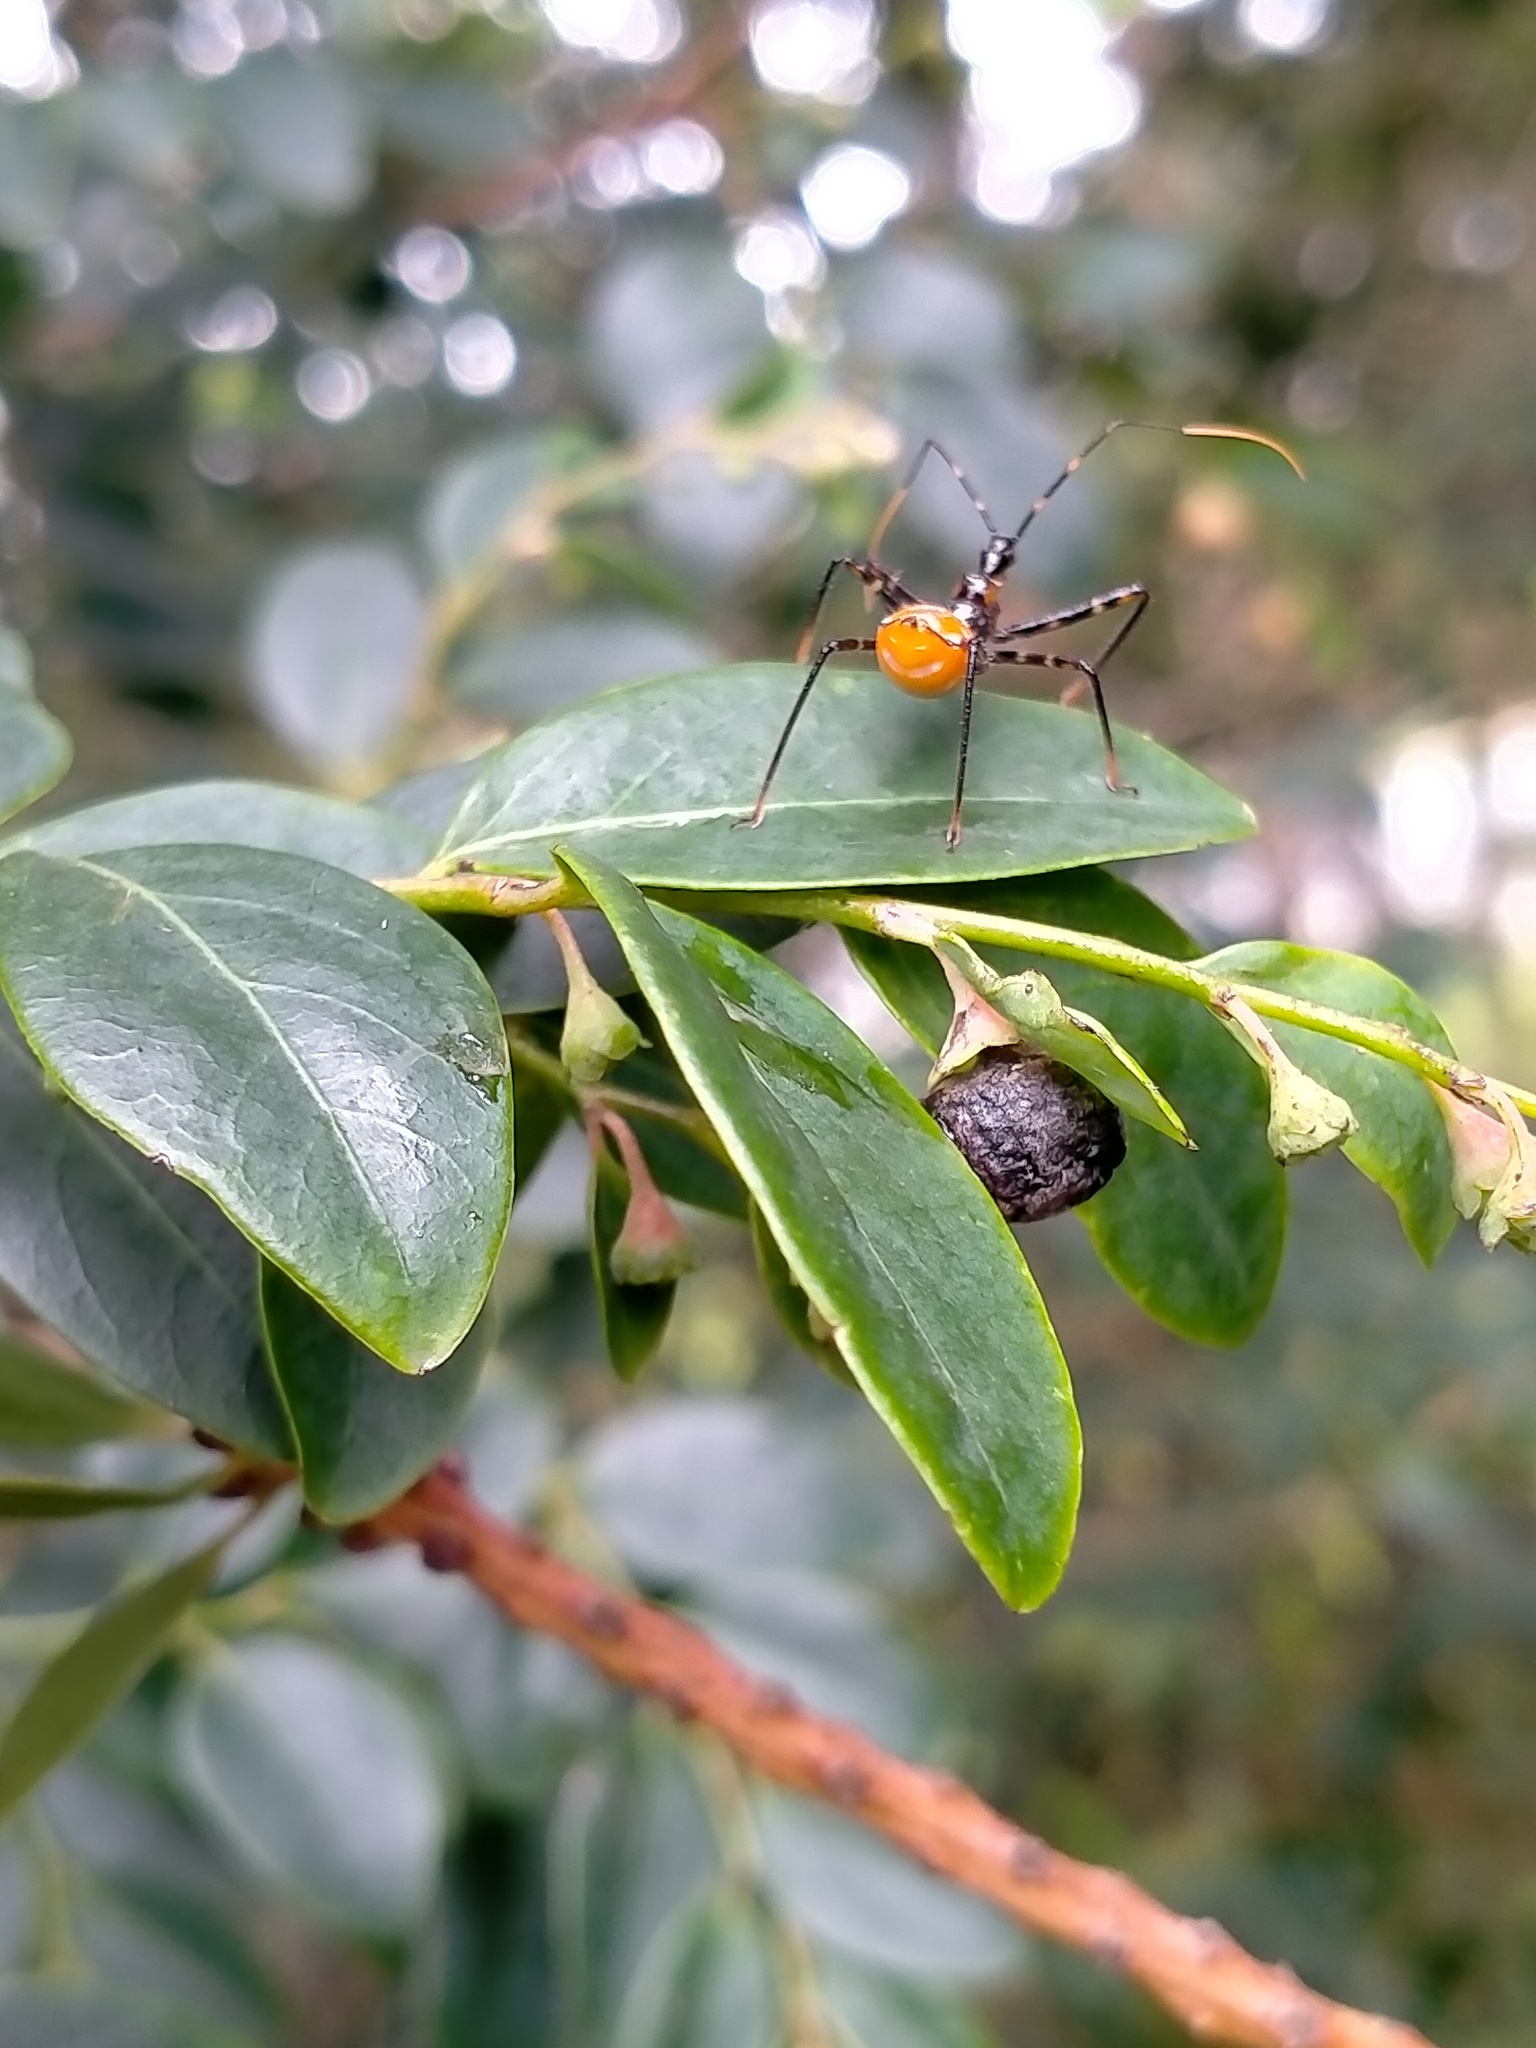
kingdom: Animalia
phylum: Arthropoda
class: Insecta
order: Hemiptera
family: Reduviidae
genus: Pristhesancus
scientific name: Pristhesancus plagipennis
